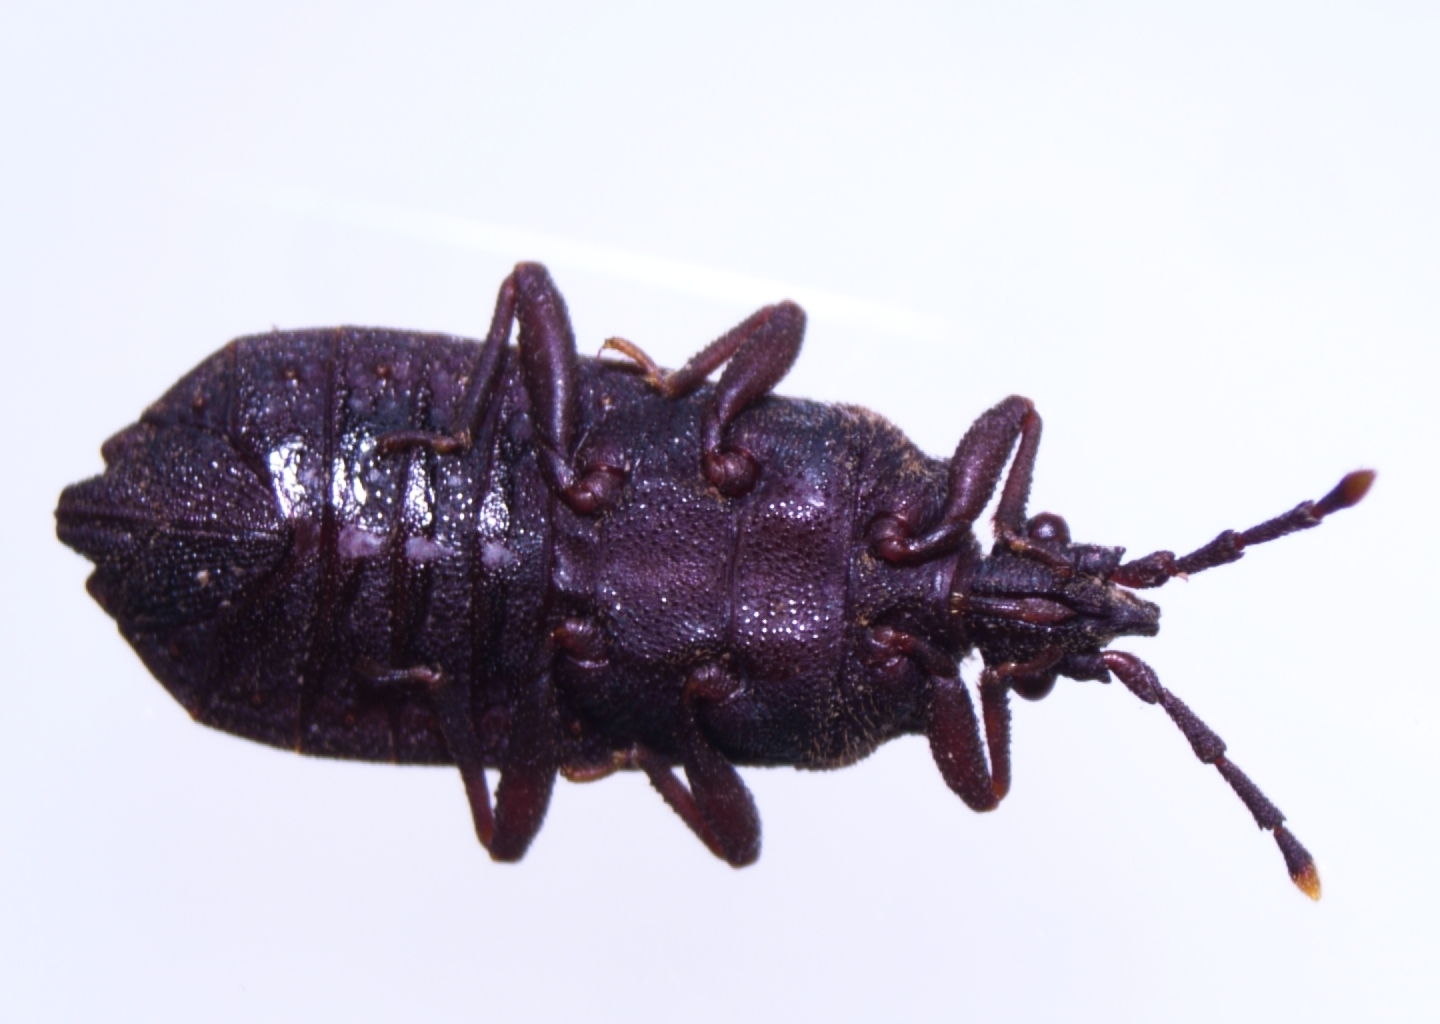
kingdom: Animalia
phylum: Arthropoda
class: Insecta
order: Hemiptera
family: Aradidae
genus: Brachyrhynchus
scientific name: Brachyrhynchus membranaceus
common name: Aradid flat bug
